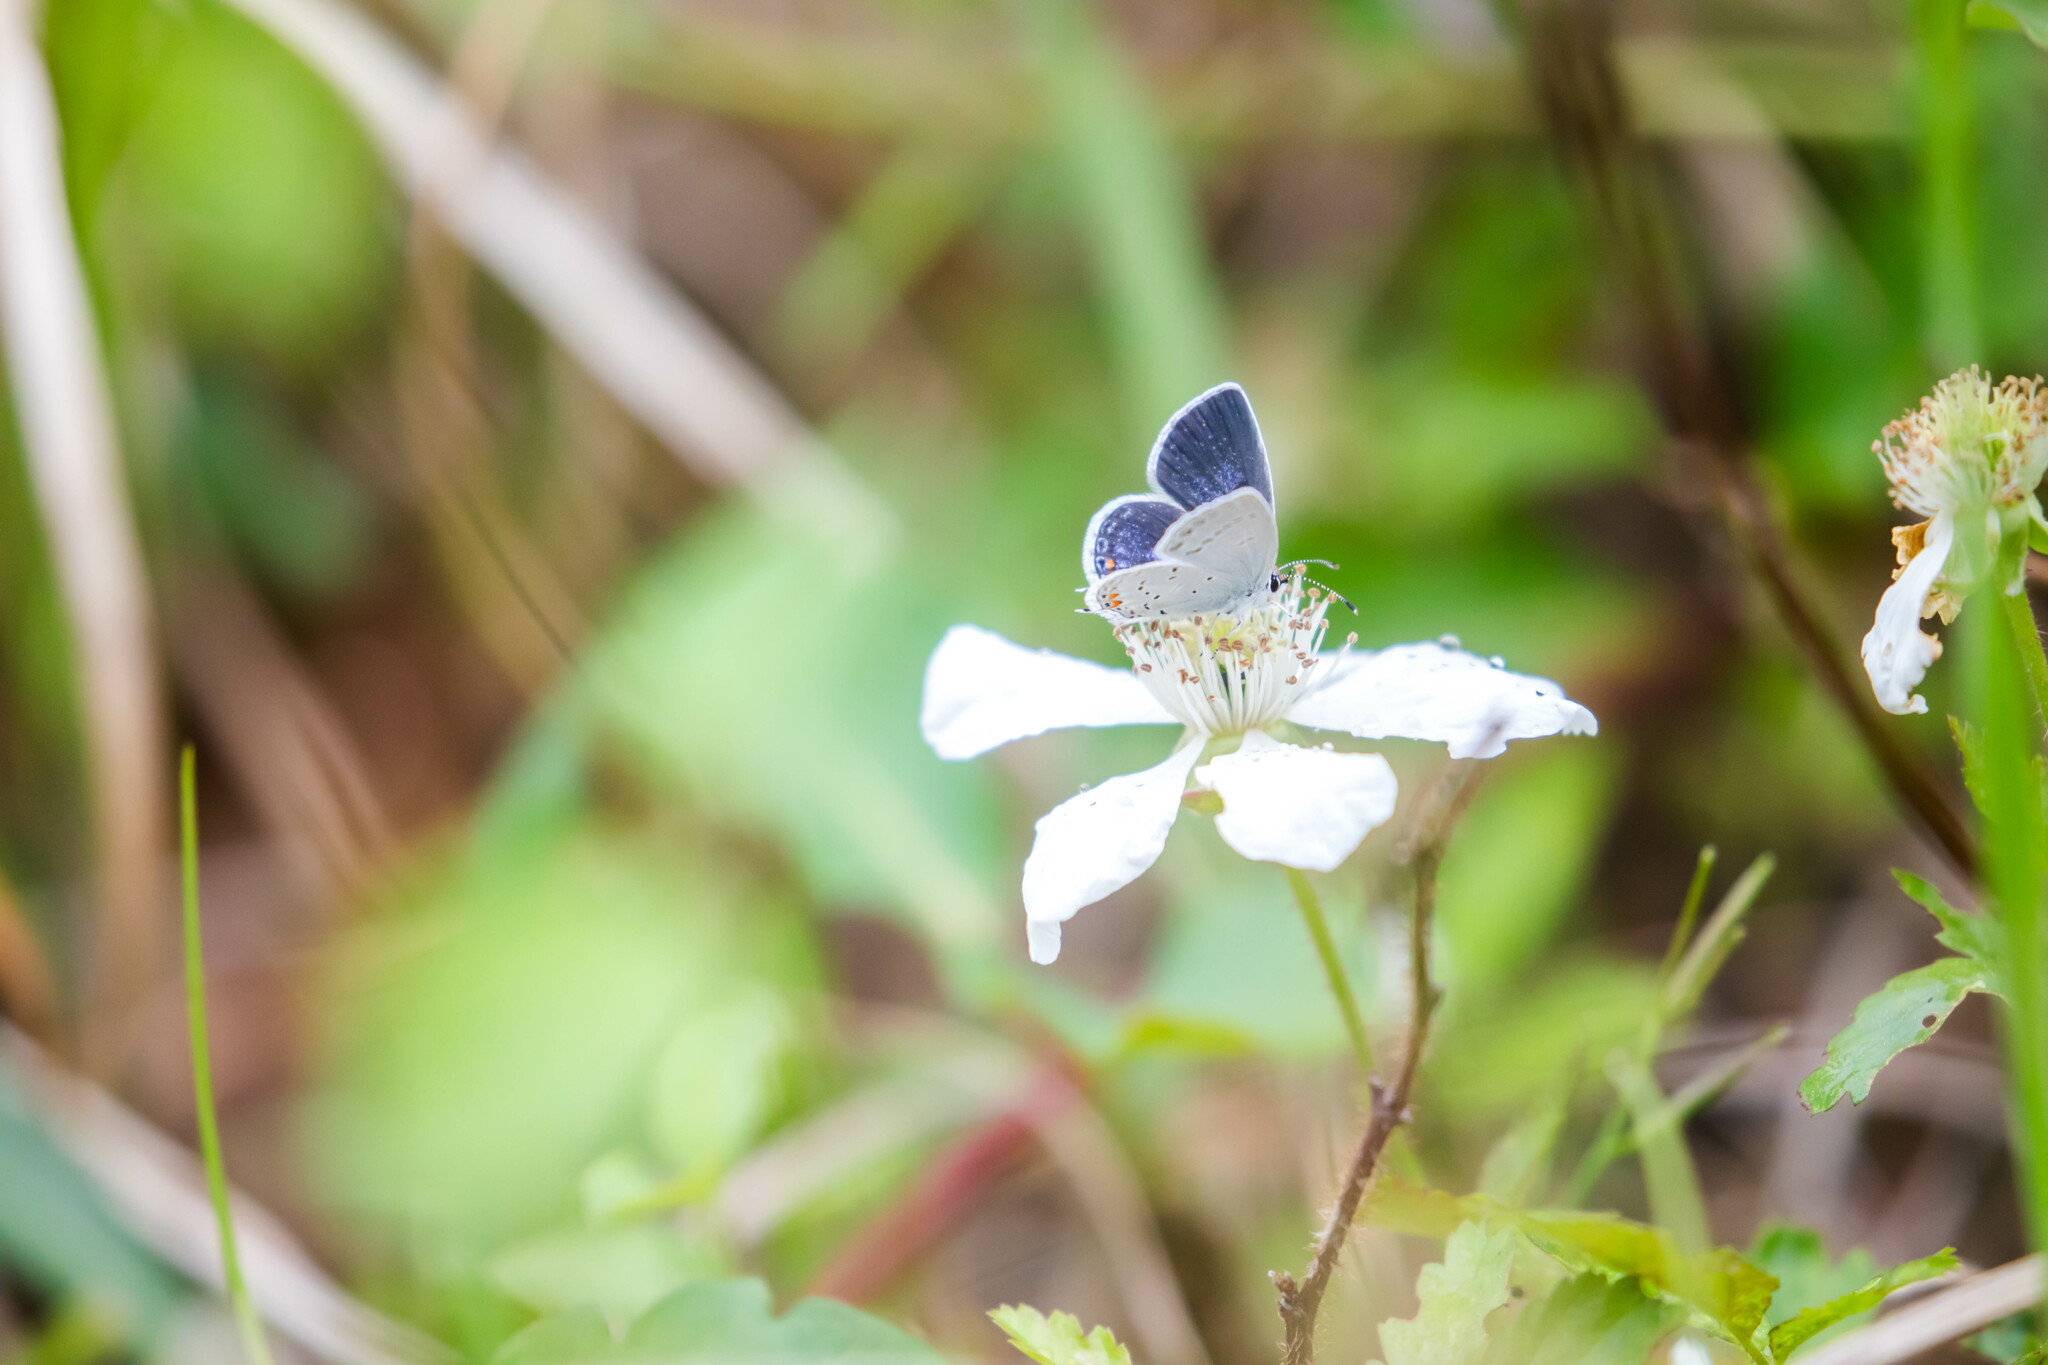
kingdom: Animalia
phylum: Arthropoda
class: Insecta
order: Lepidoptera
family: Lycaenidae
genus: Elkalyce
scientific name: Elkalyce comyntas
